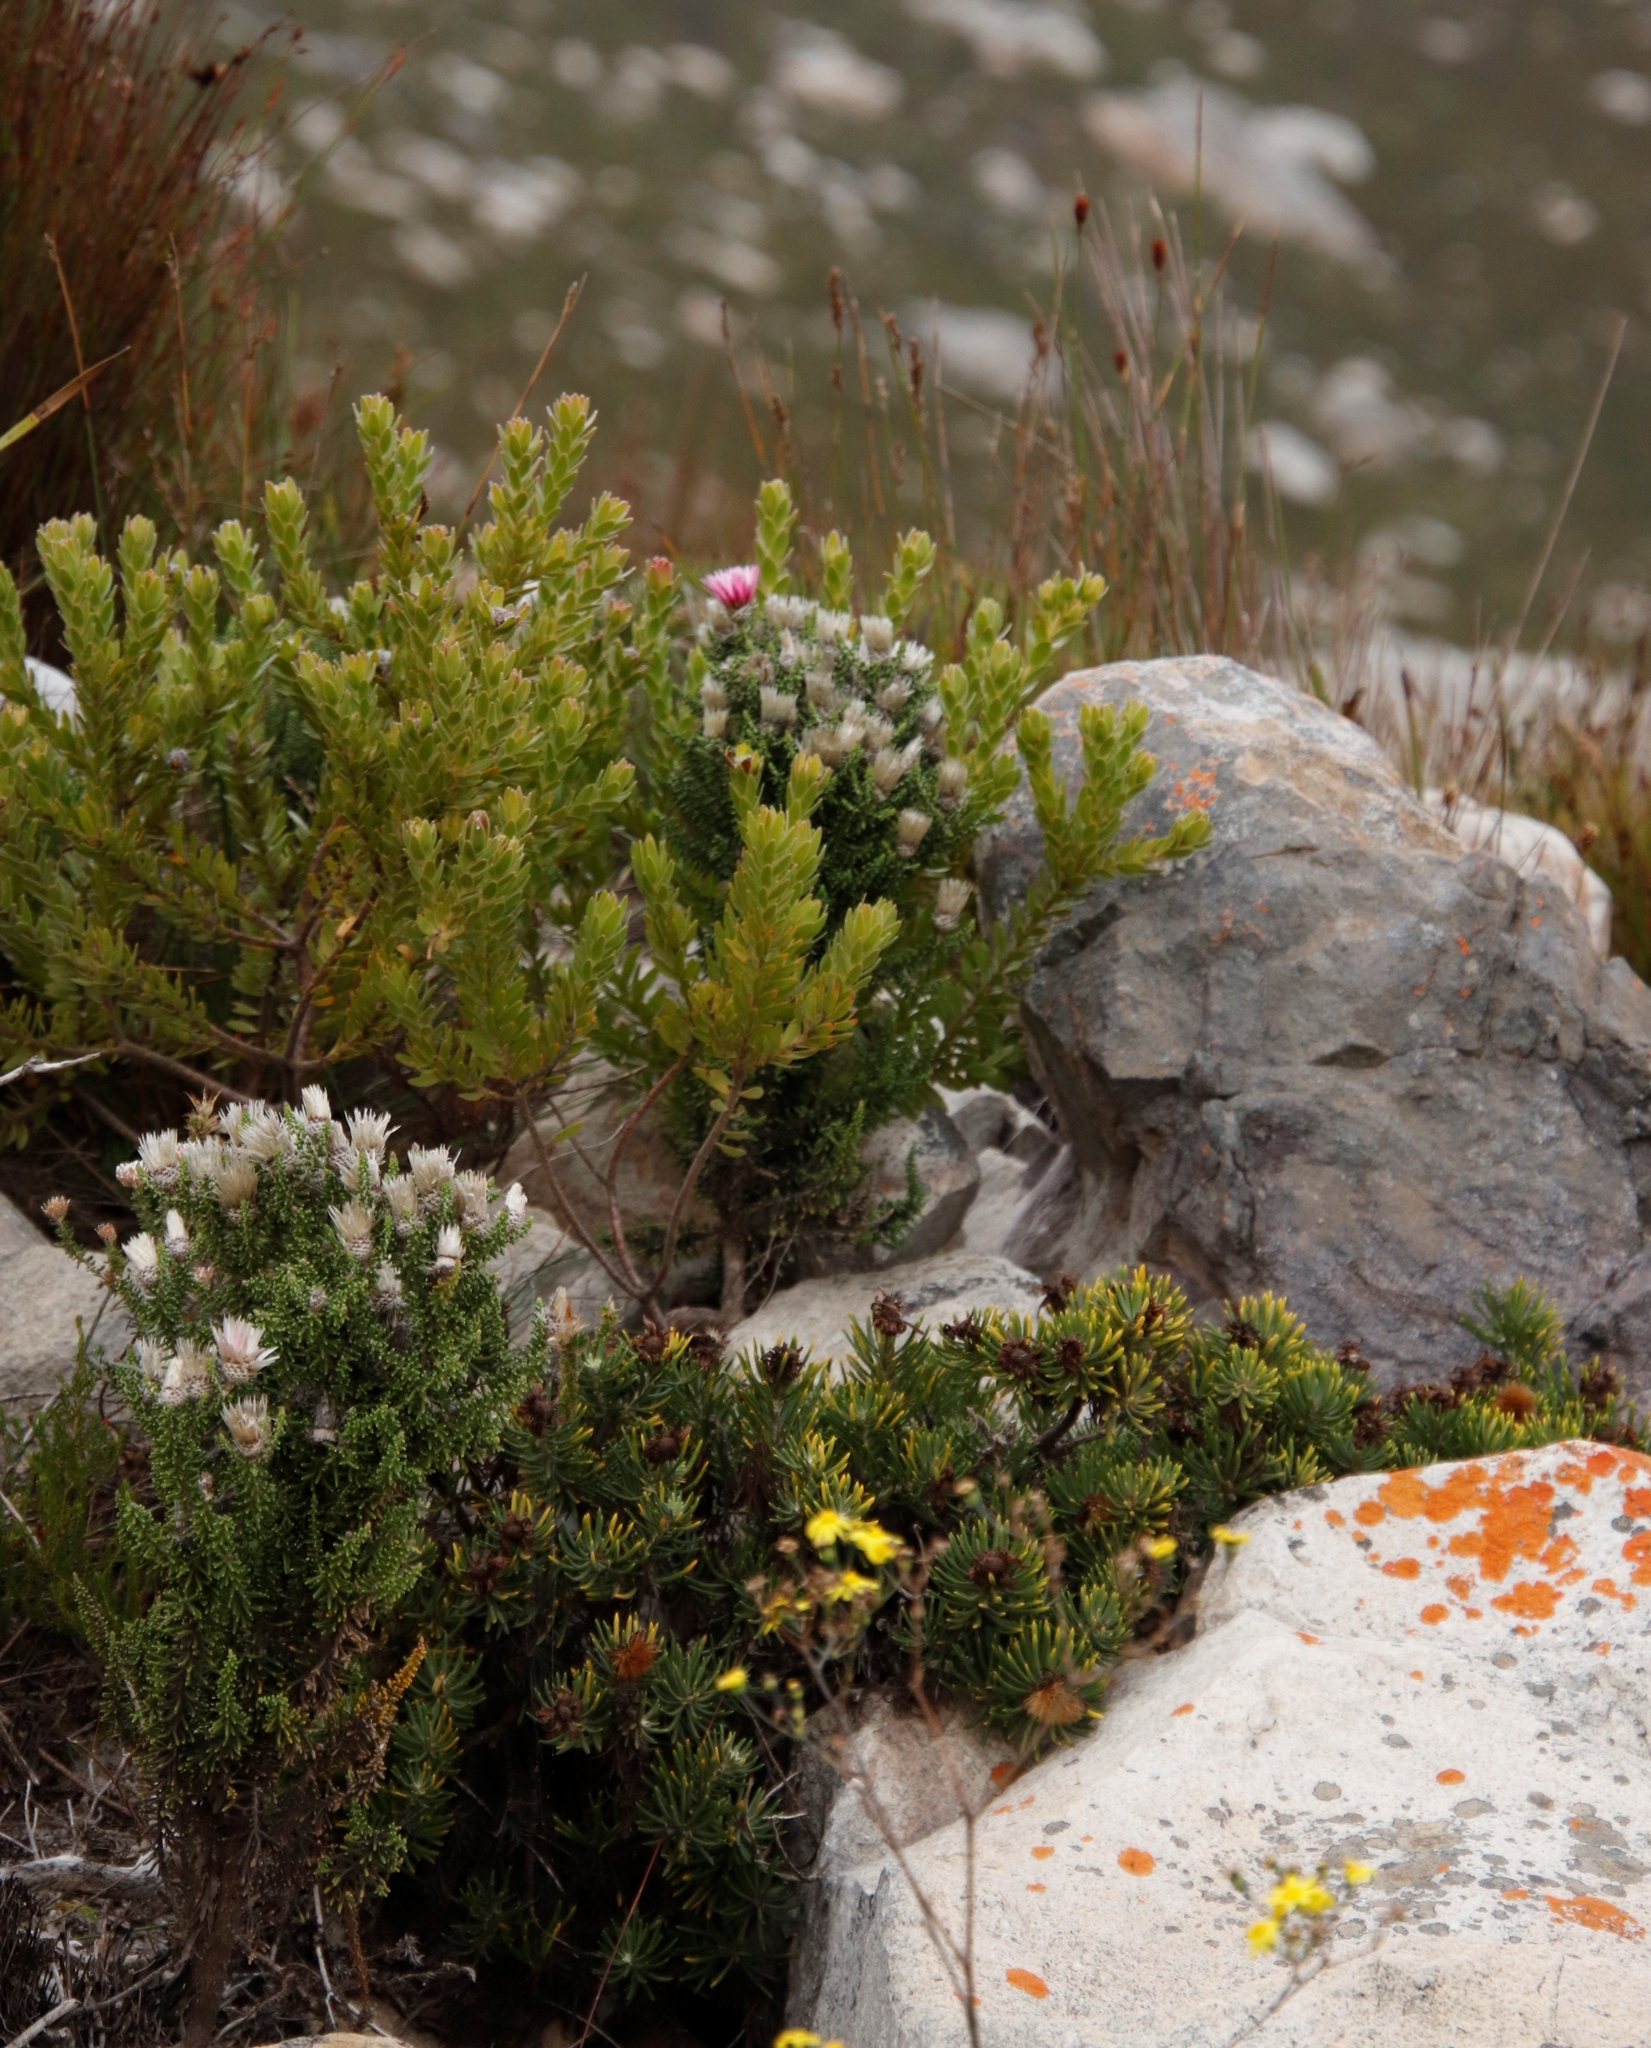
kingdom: Plantae
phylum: Tracheophyta
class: Magnoliopsida
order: Asterales
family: Asteraceae
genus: Phaenocoma
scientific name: Phaenocoma prolifera
